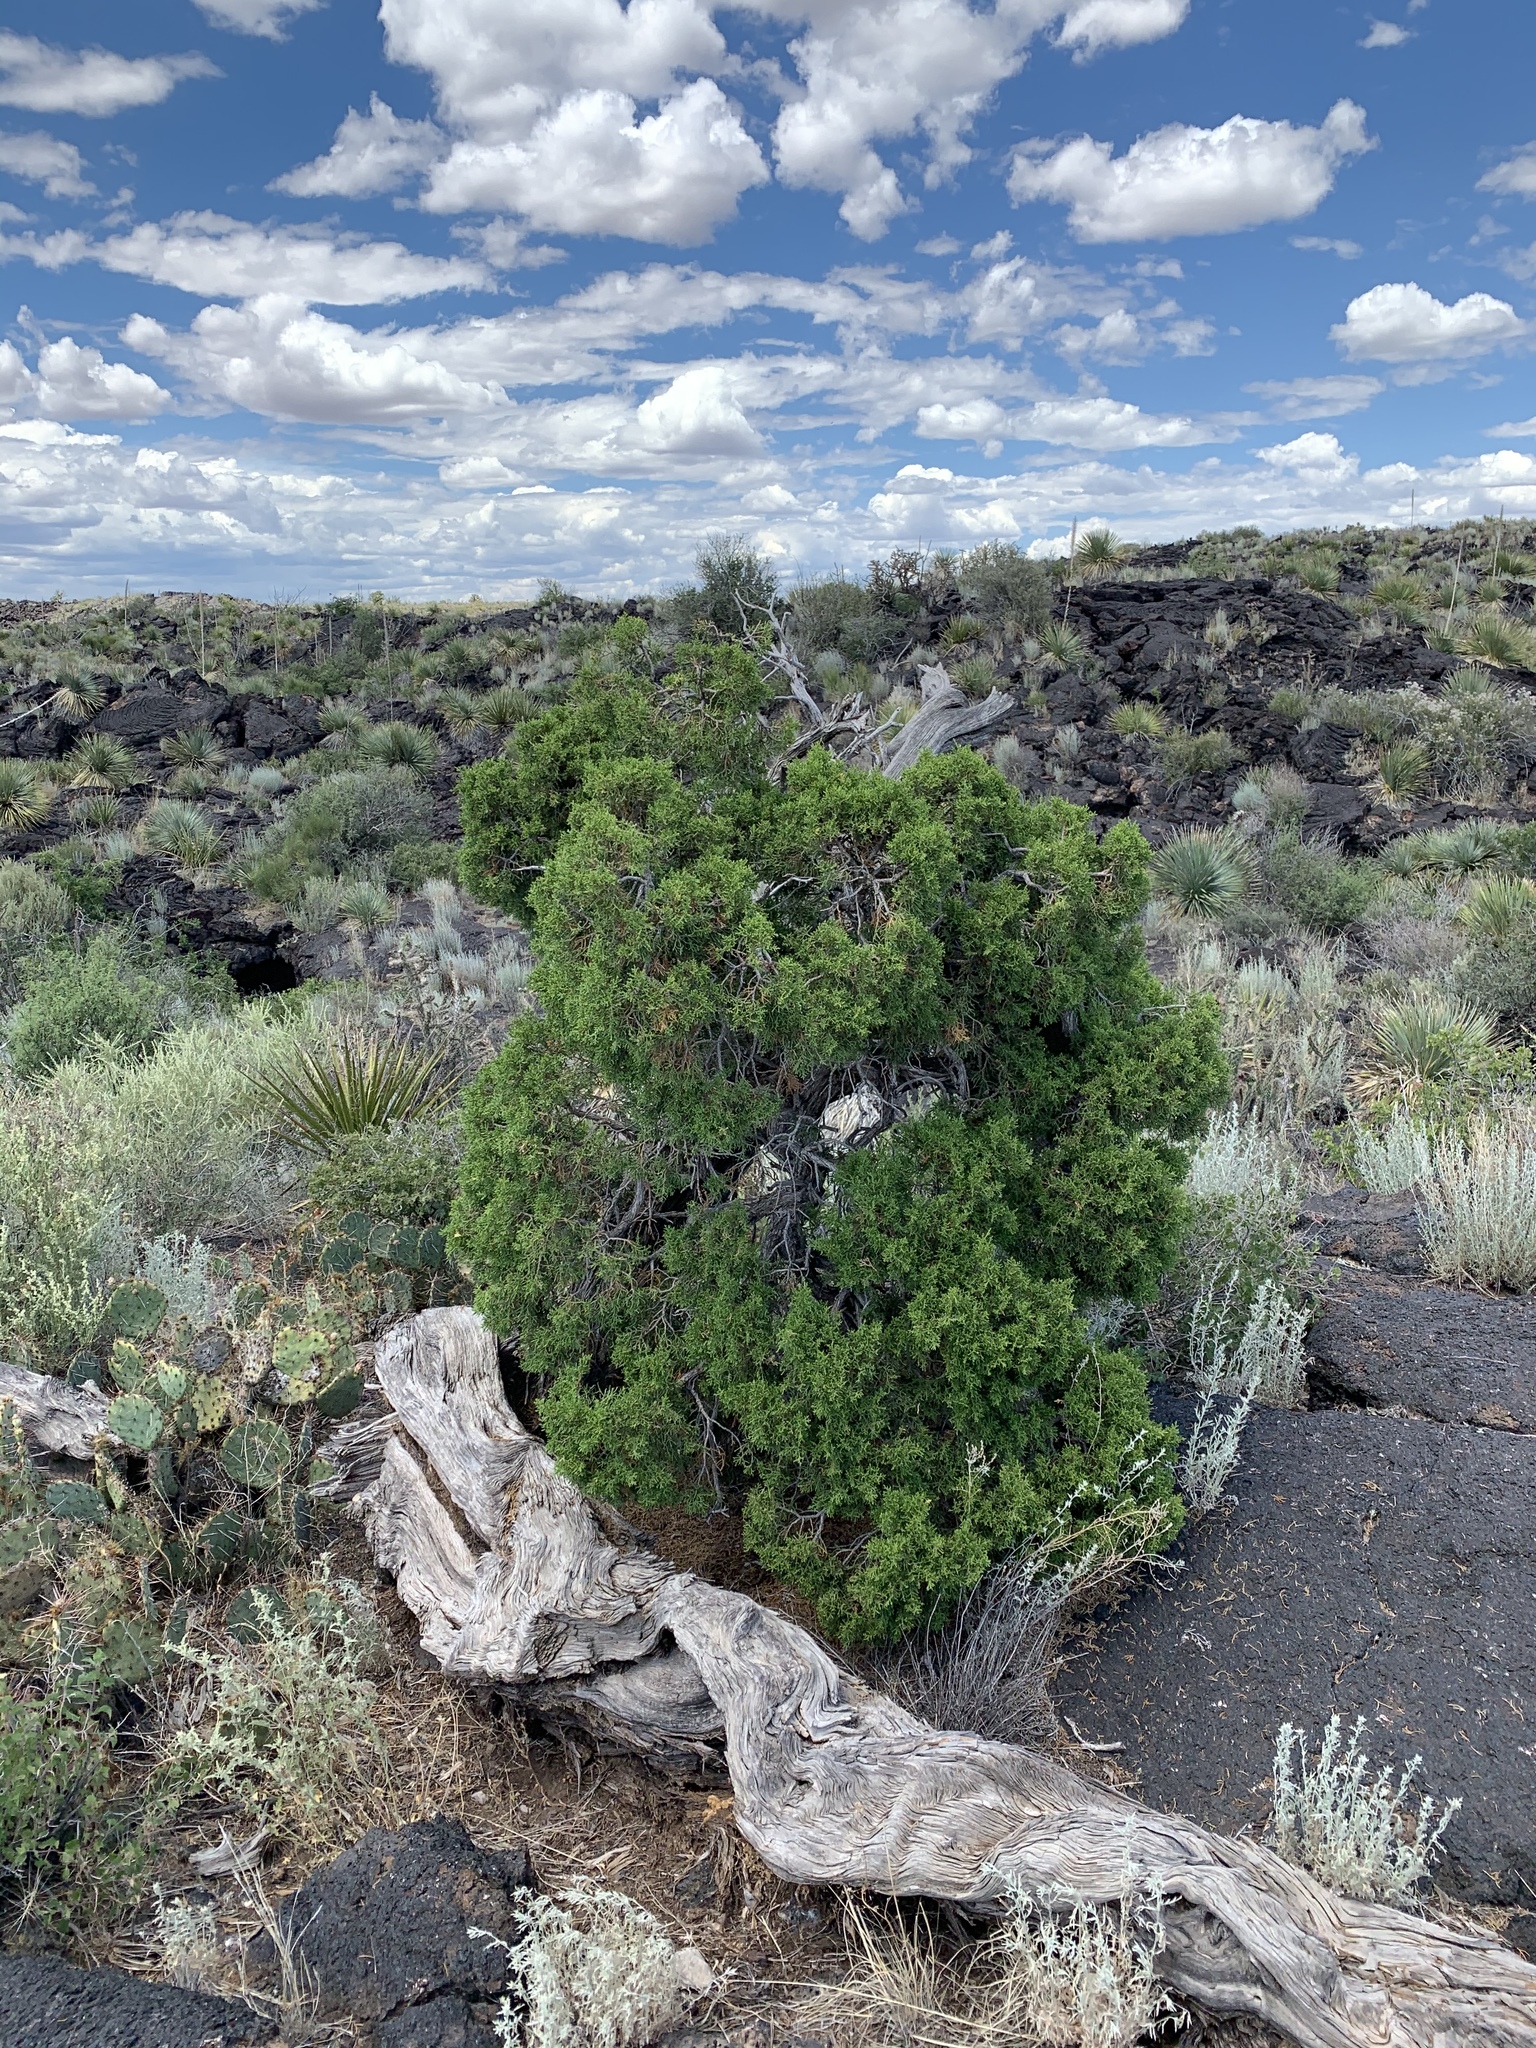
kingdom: Plantae
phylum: Tracheophyta
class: Pinopsida
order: Pinales
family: Cupressaceae
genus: Juniperus
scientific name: Juniperus monosperma
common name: One-seed juniper
